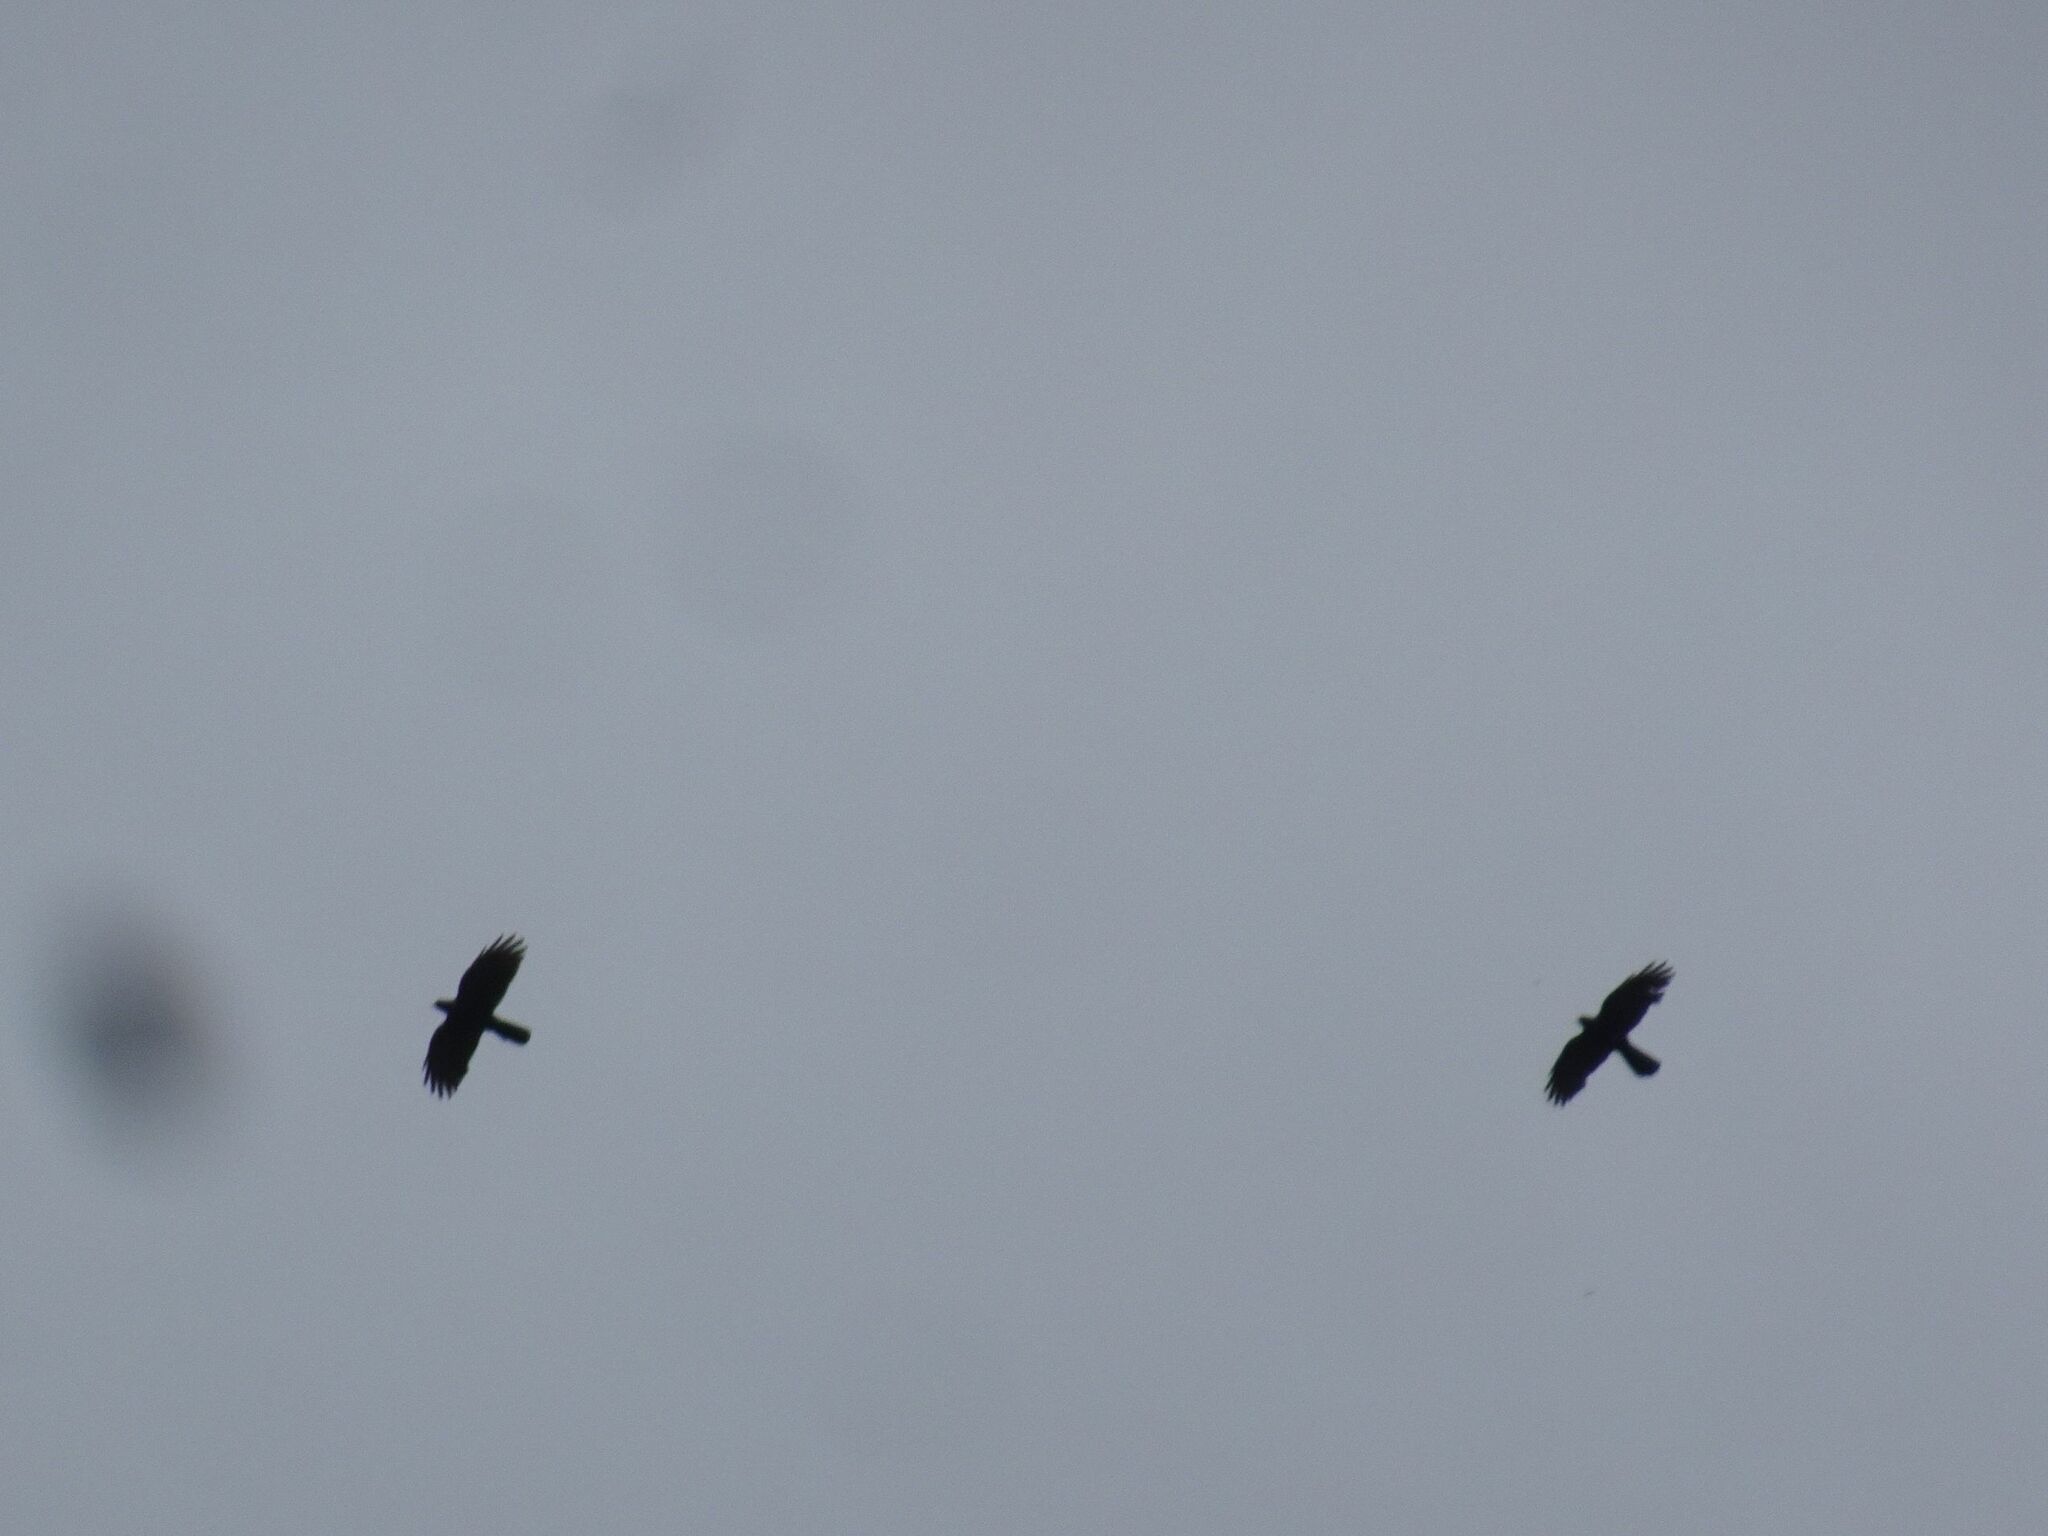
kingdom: Animalia
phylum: Chordata
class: Aves
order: Passeriformes
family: Corvidae
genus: Pyrrhocorax
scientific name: Pyrrhocorax graculus
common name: Alpine chough
